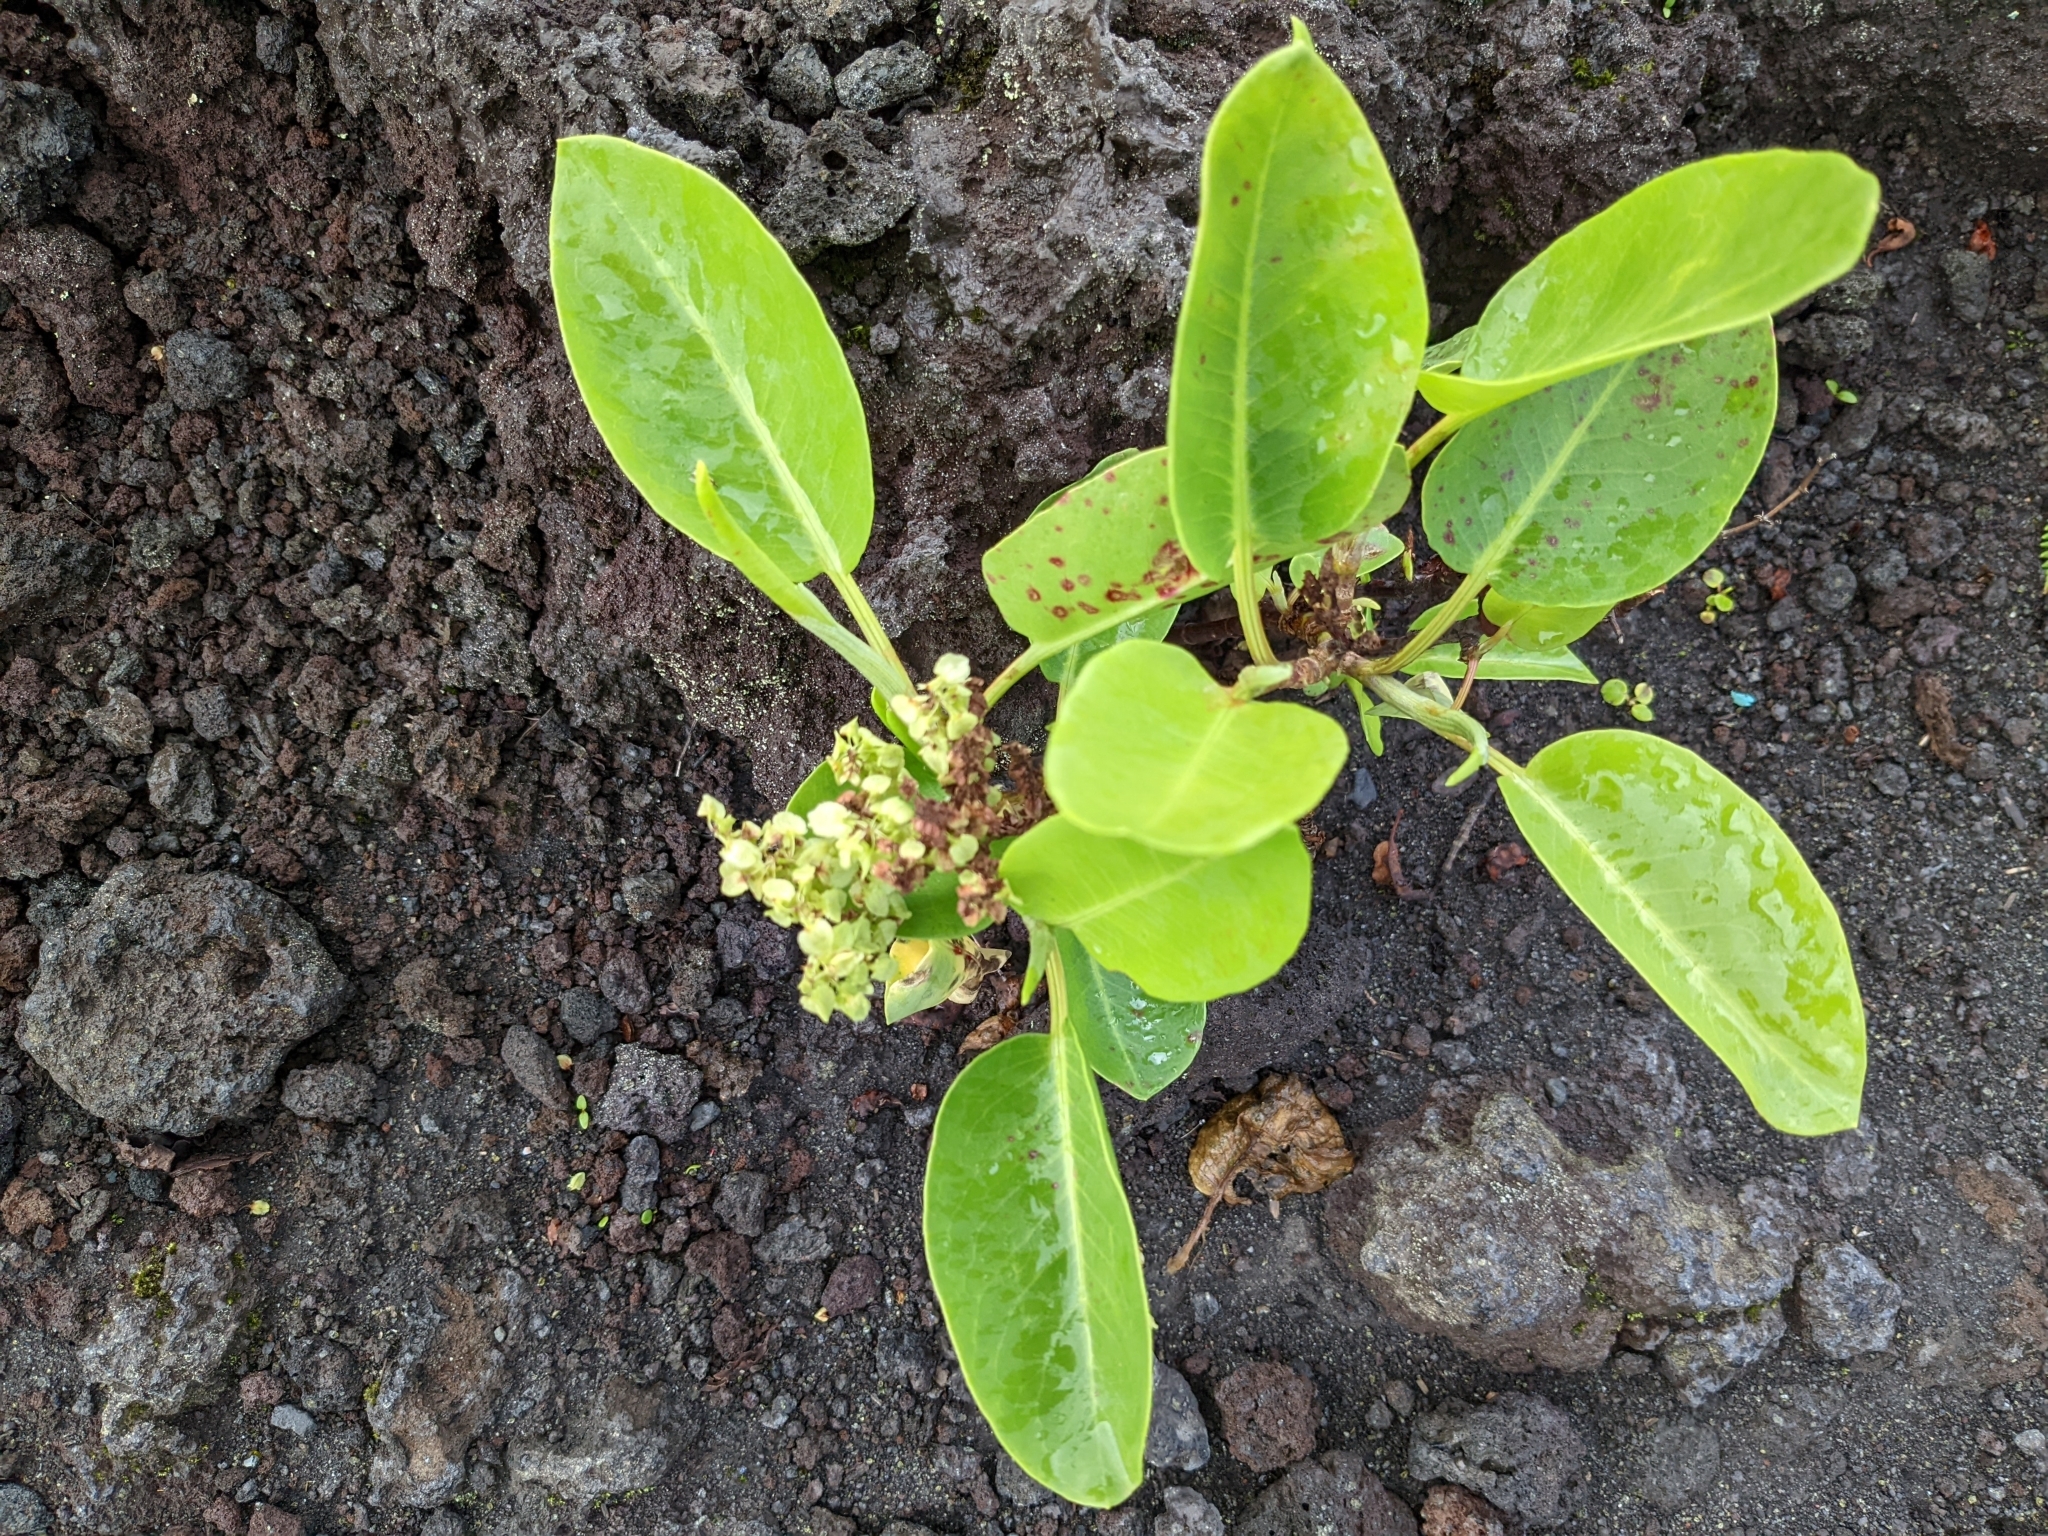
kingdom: Plantae
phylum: Tracheophyta
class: Magnoliopsida
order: Caryophyllales
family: Polygonaceae
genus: Rumex
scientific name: Rumex skottsbergii
